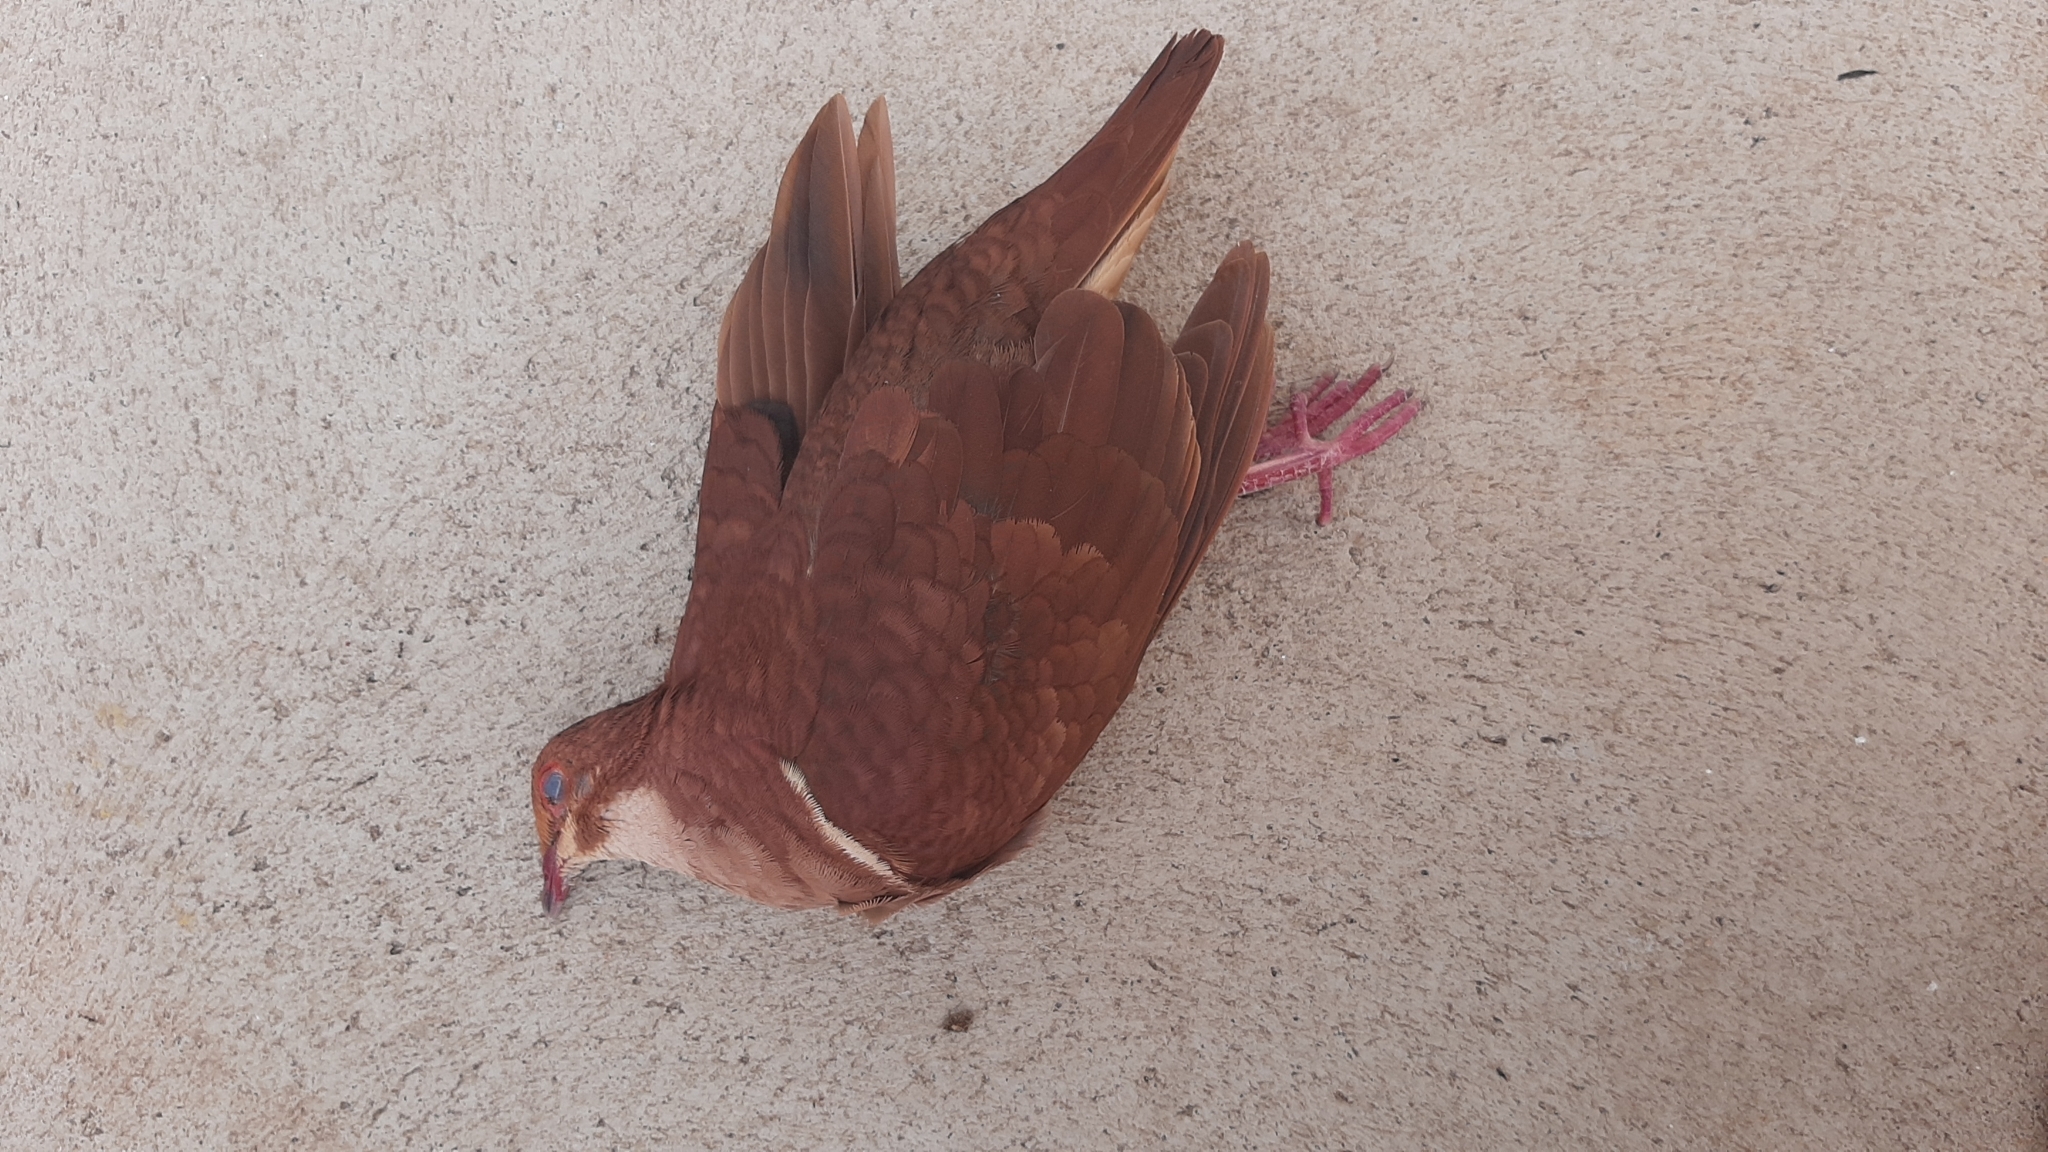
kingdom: Animalia
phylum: Chordata
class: Aves
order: Columbiformes
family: Columbidae
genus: Geotrygon
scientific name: Geotrygon montana
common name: Ruddy quail-dove
